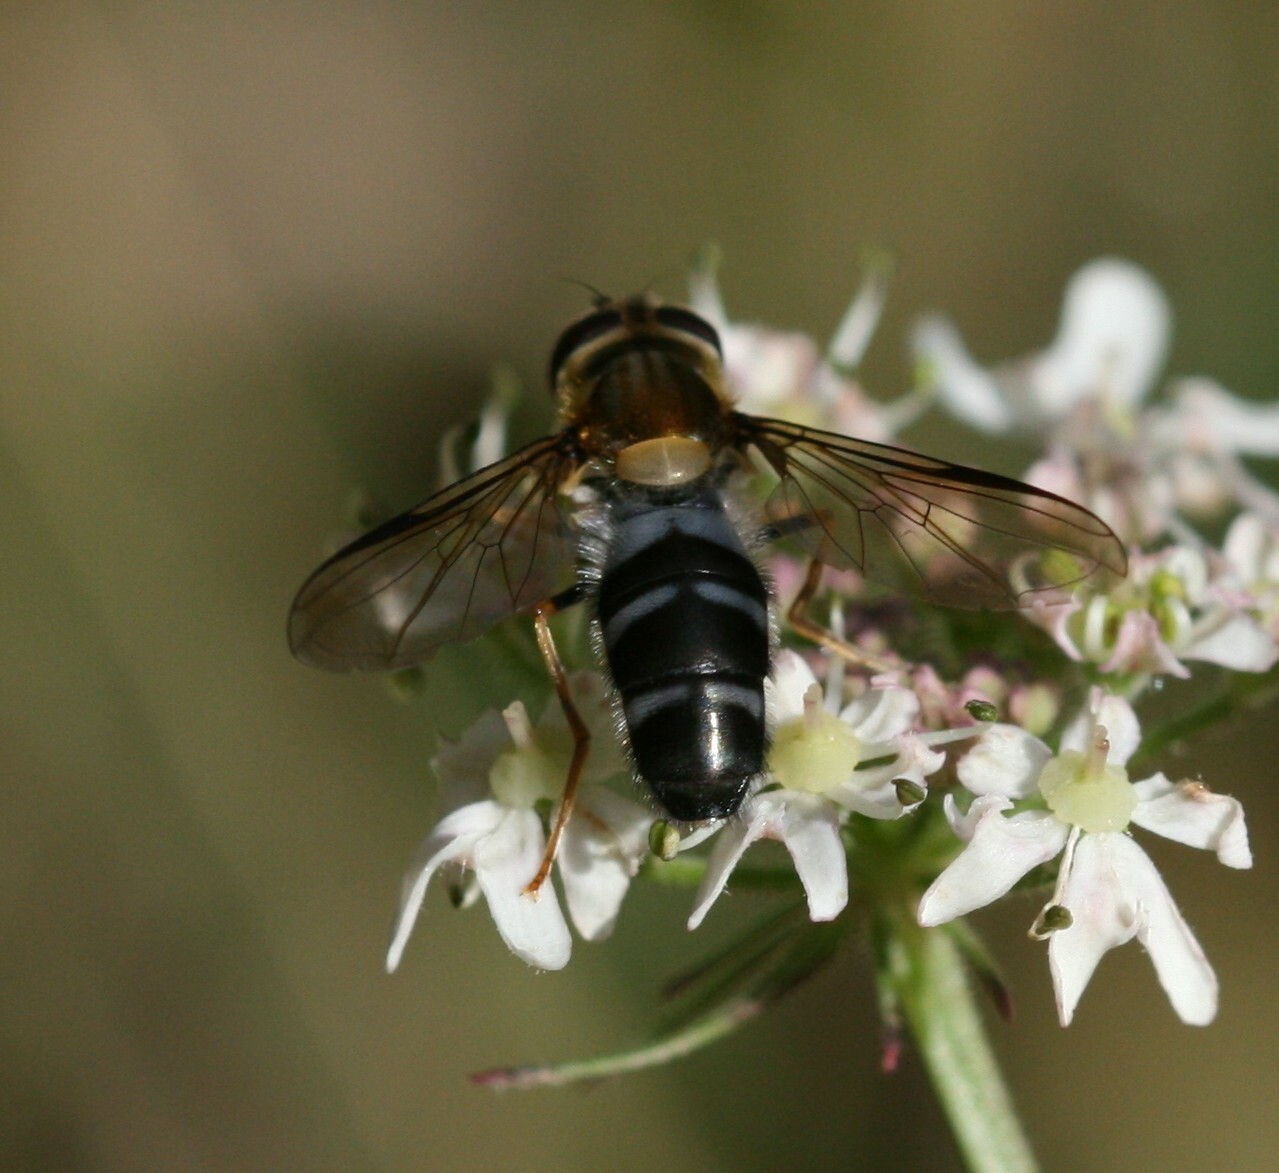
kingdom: Animalia
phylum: Arthropoda
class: Insecta
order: Diptera
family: Syrphidae
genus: Leucozona
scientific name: Leucozona glaucia
